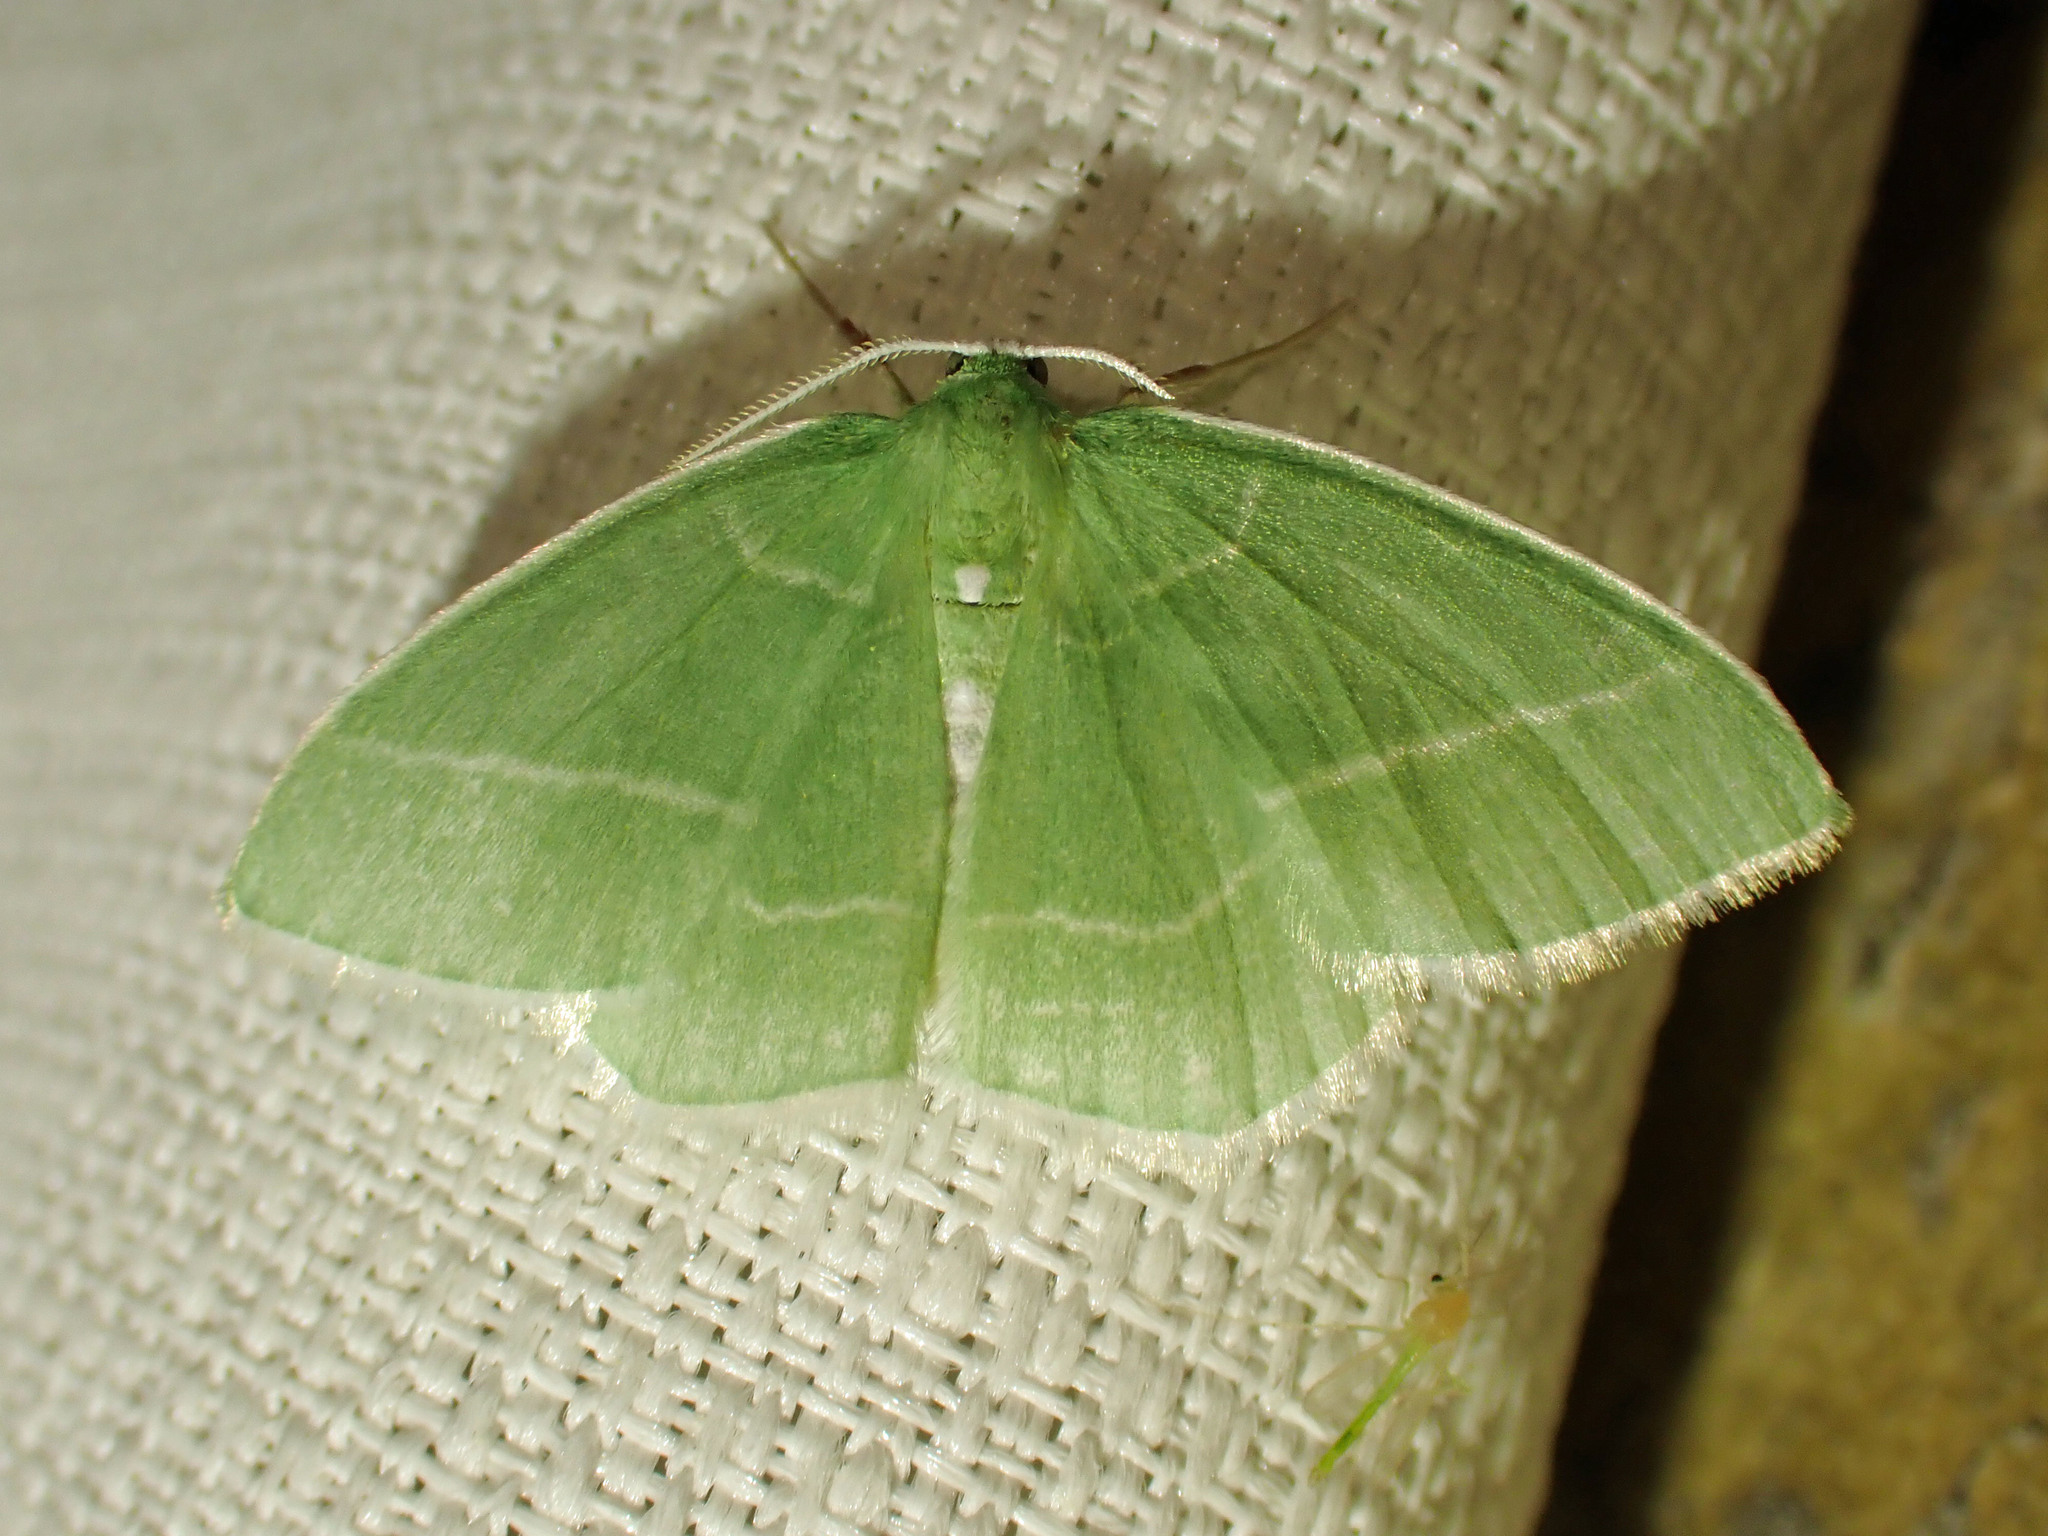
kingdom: Animalia
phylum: Arthropoda
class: Insecta
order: Lepidoptera
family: Geometridae
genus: Nemoria
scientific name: Nemoria mimosaria
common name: White-fringed emerald
